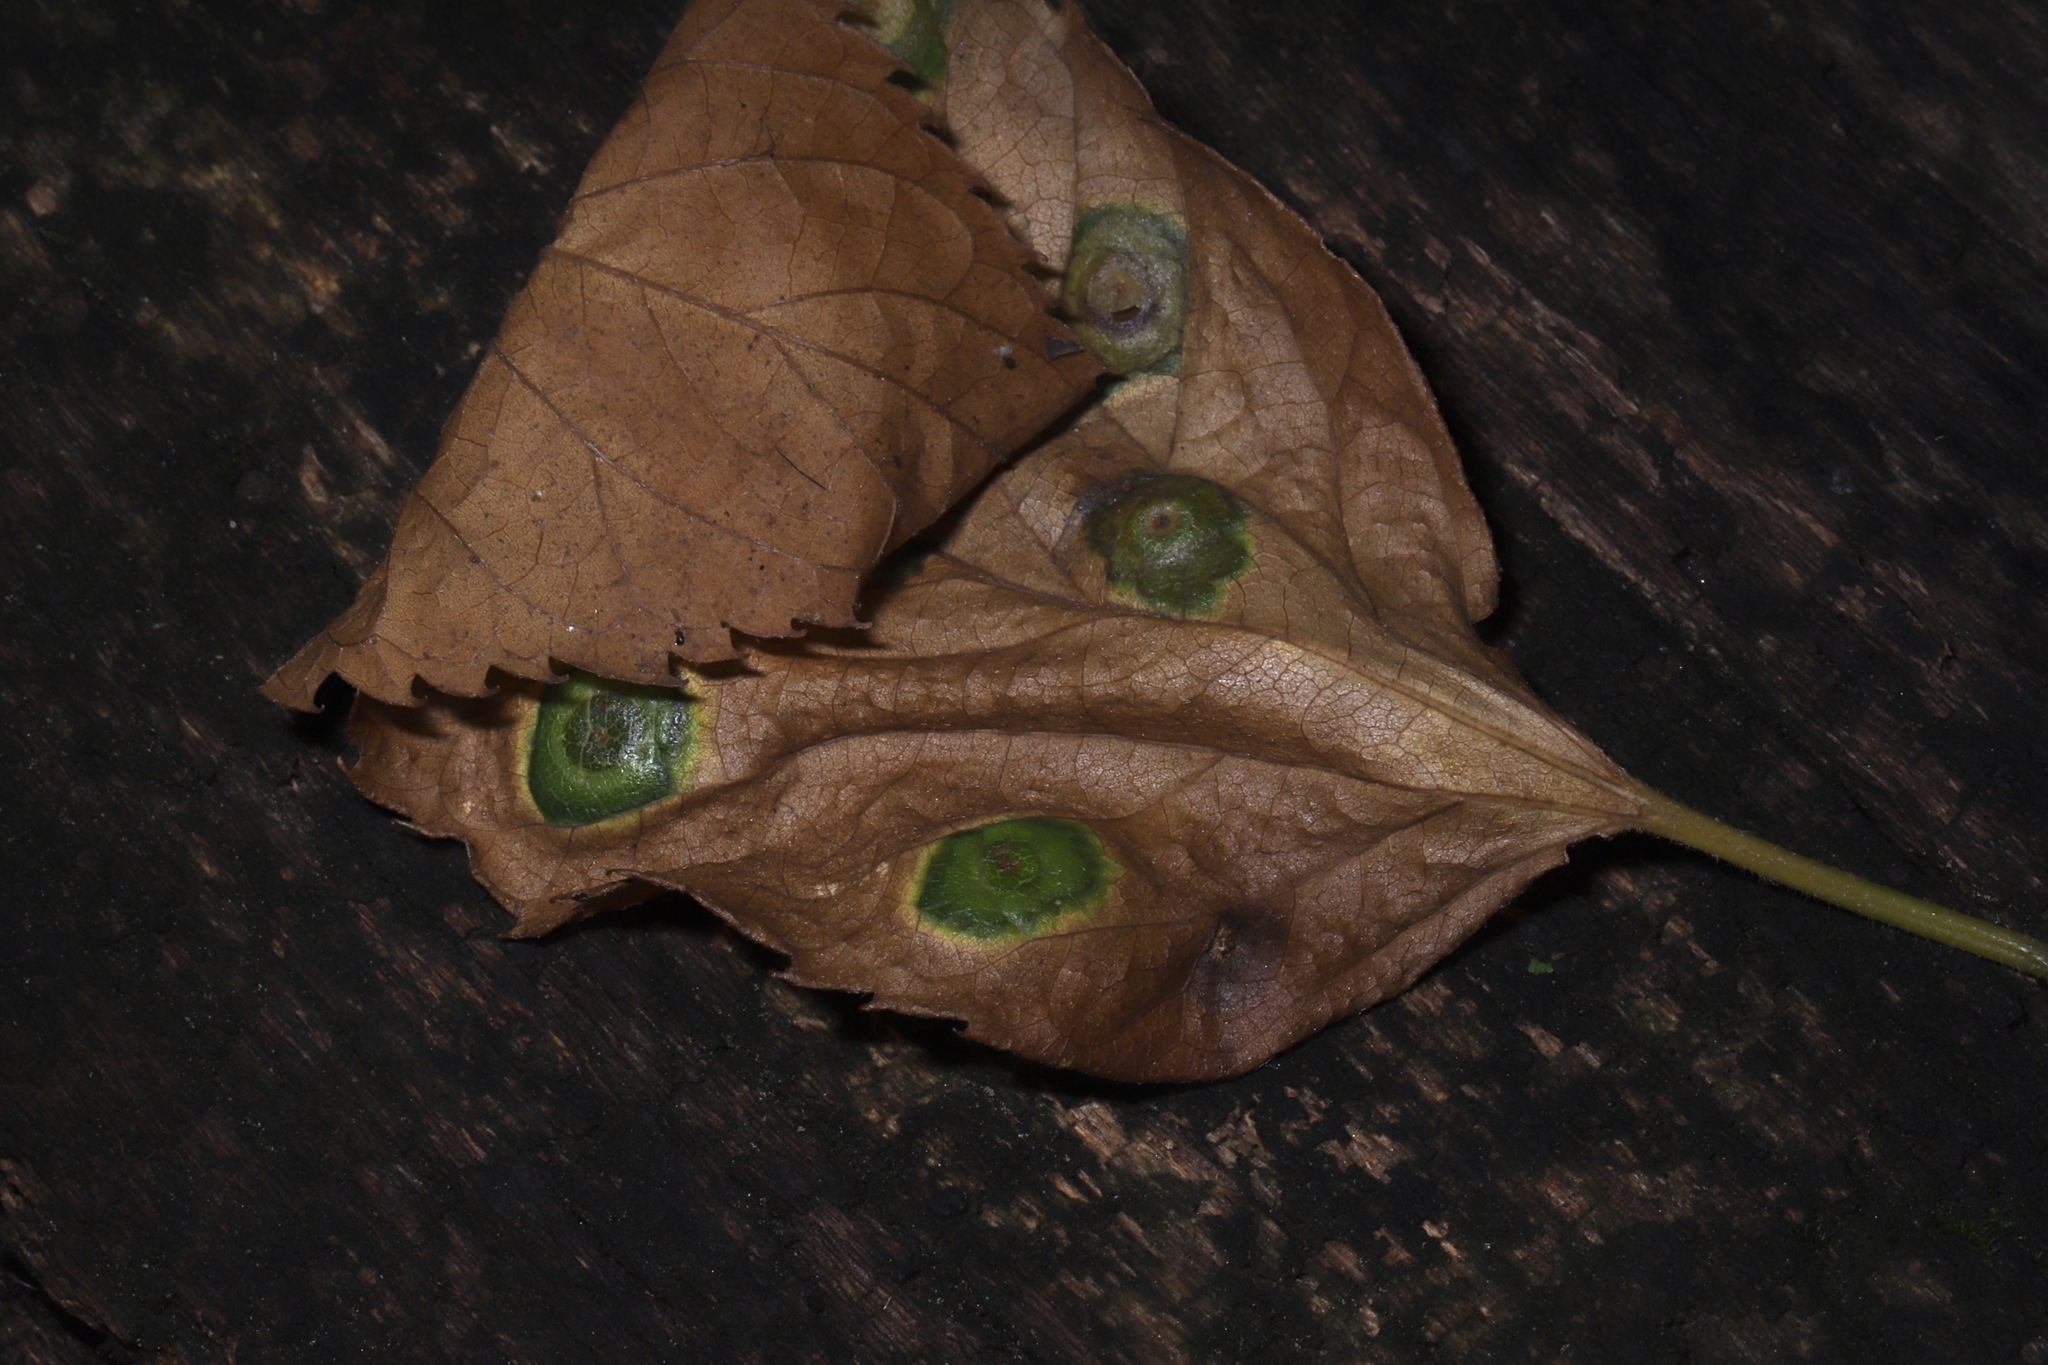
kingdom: Animalia
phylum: Arthropoda
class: Insecta
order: Hemiptera
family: Aphalaridae
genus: Pachypsylla
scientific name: Pachypsylla celtidisasterisca
